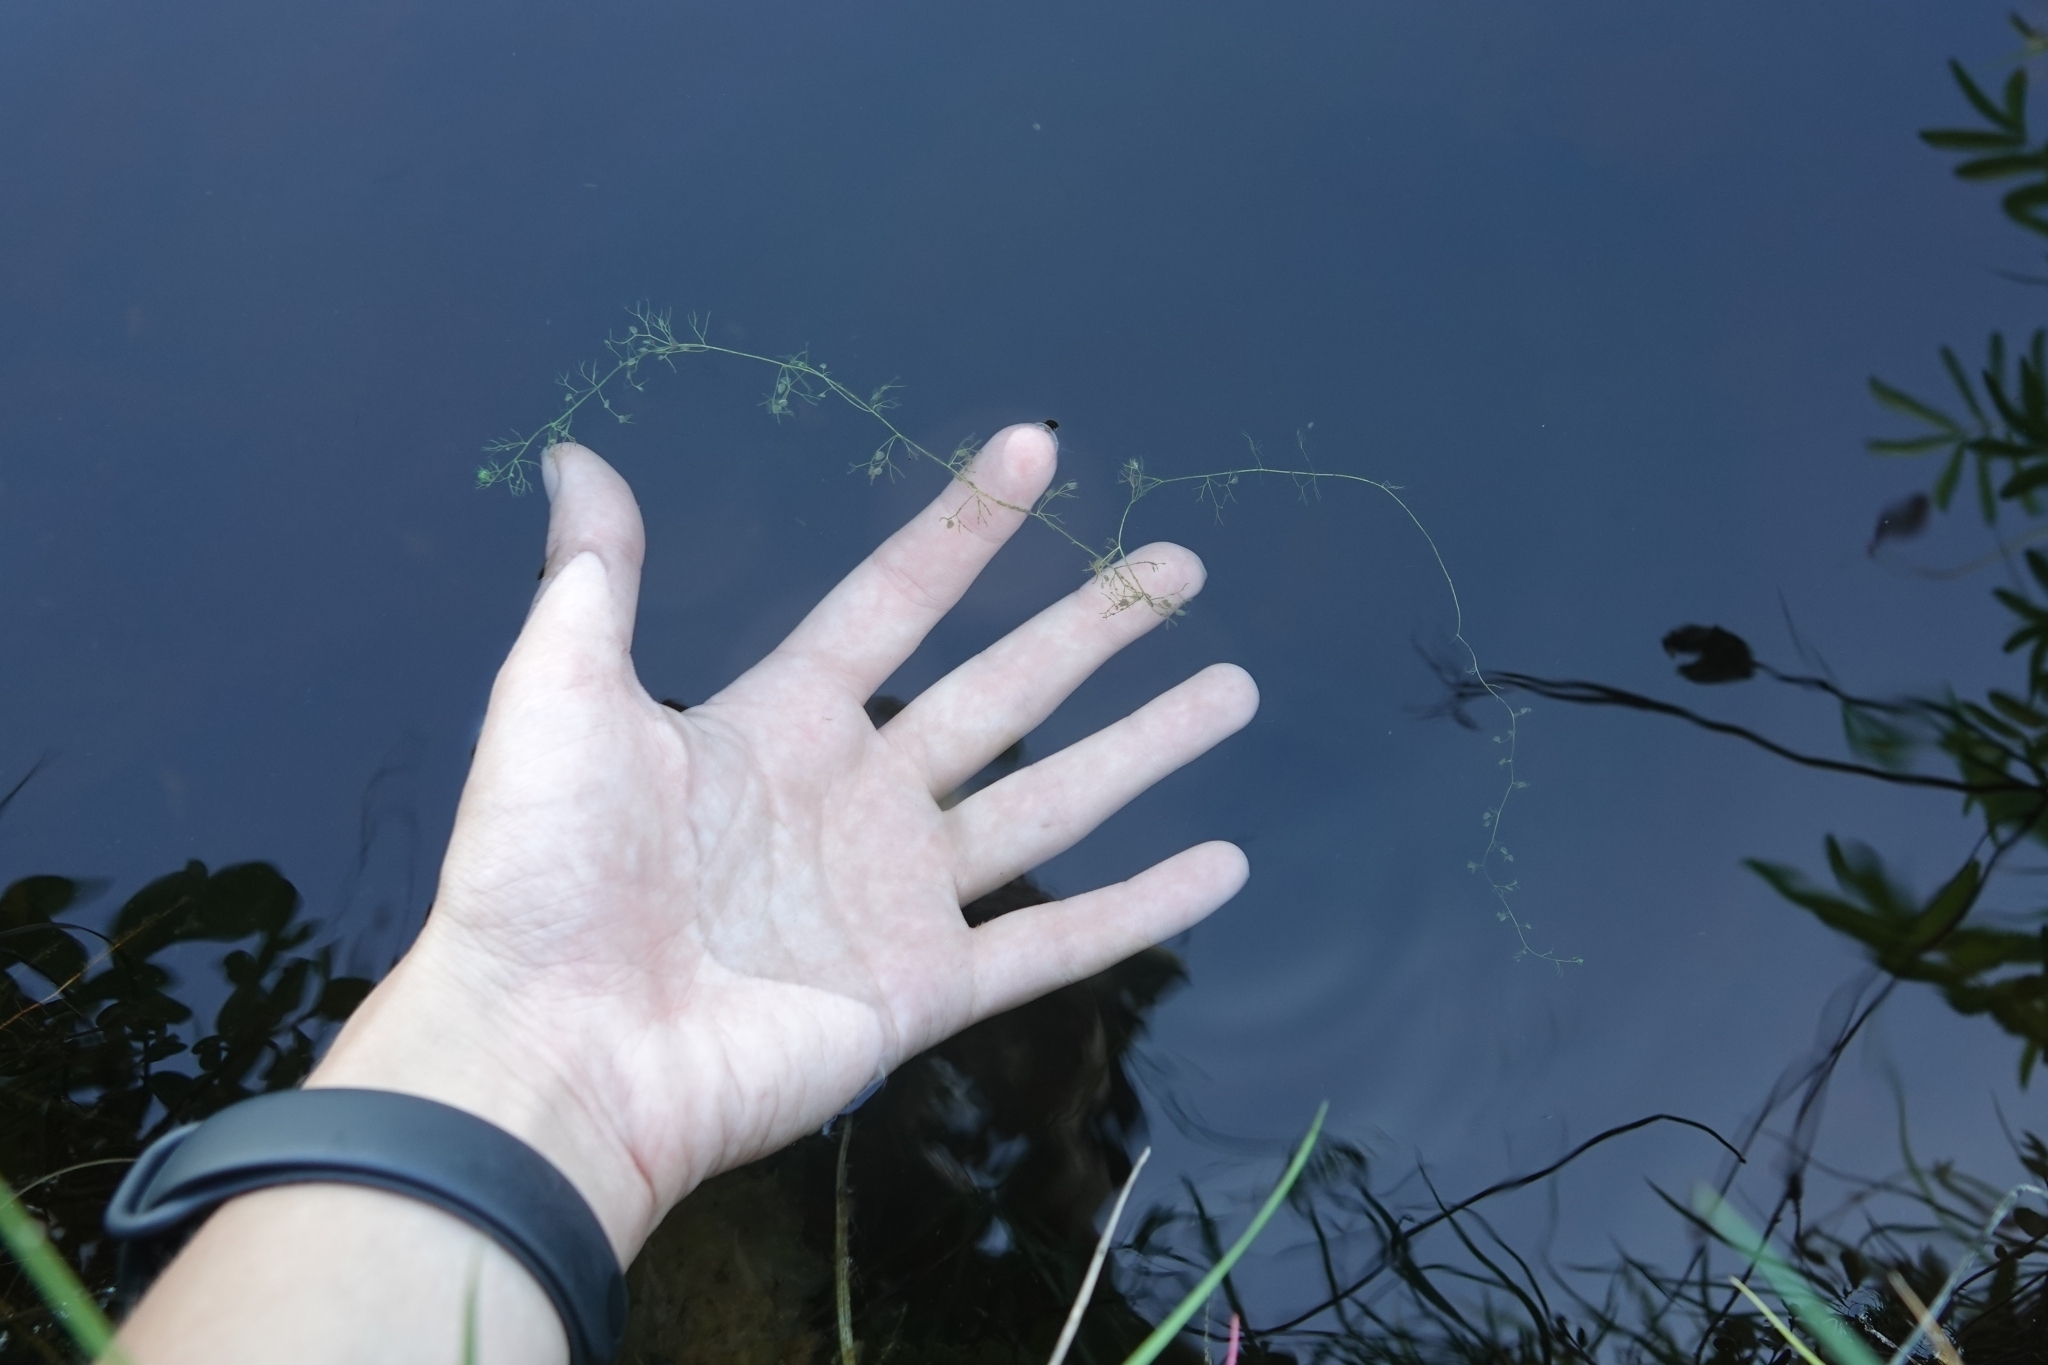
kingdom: Plantae
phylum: Tracheophyta
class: Magnoliopsida
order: Lamiales
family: Lentibulariaceae
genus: Utricularia
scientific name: Utricularia minor
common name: Lesser bladderwort
